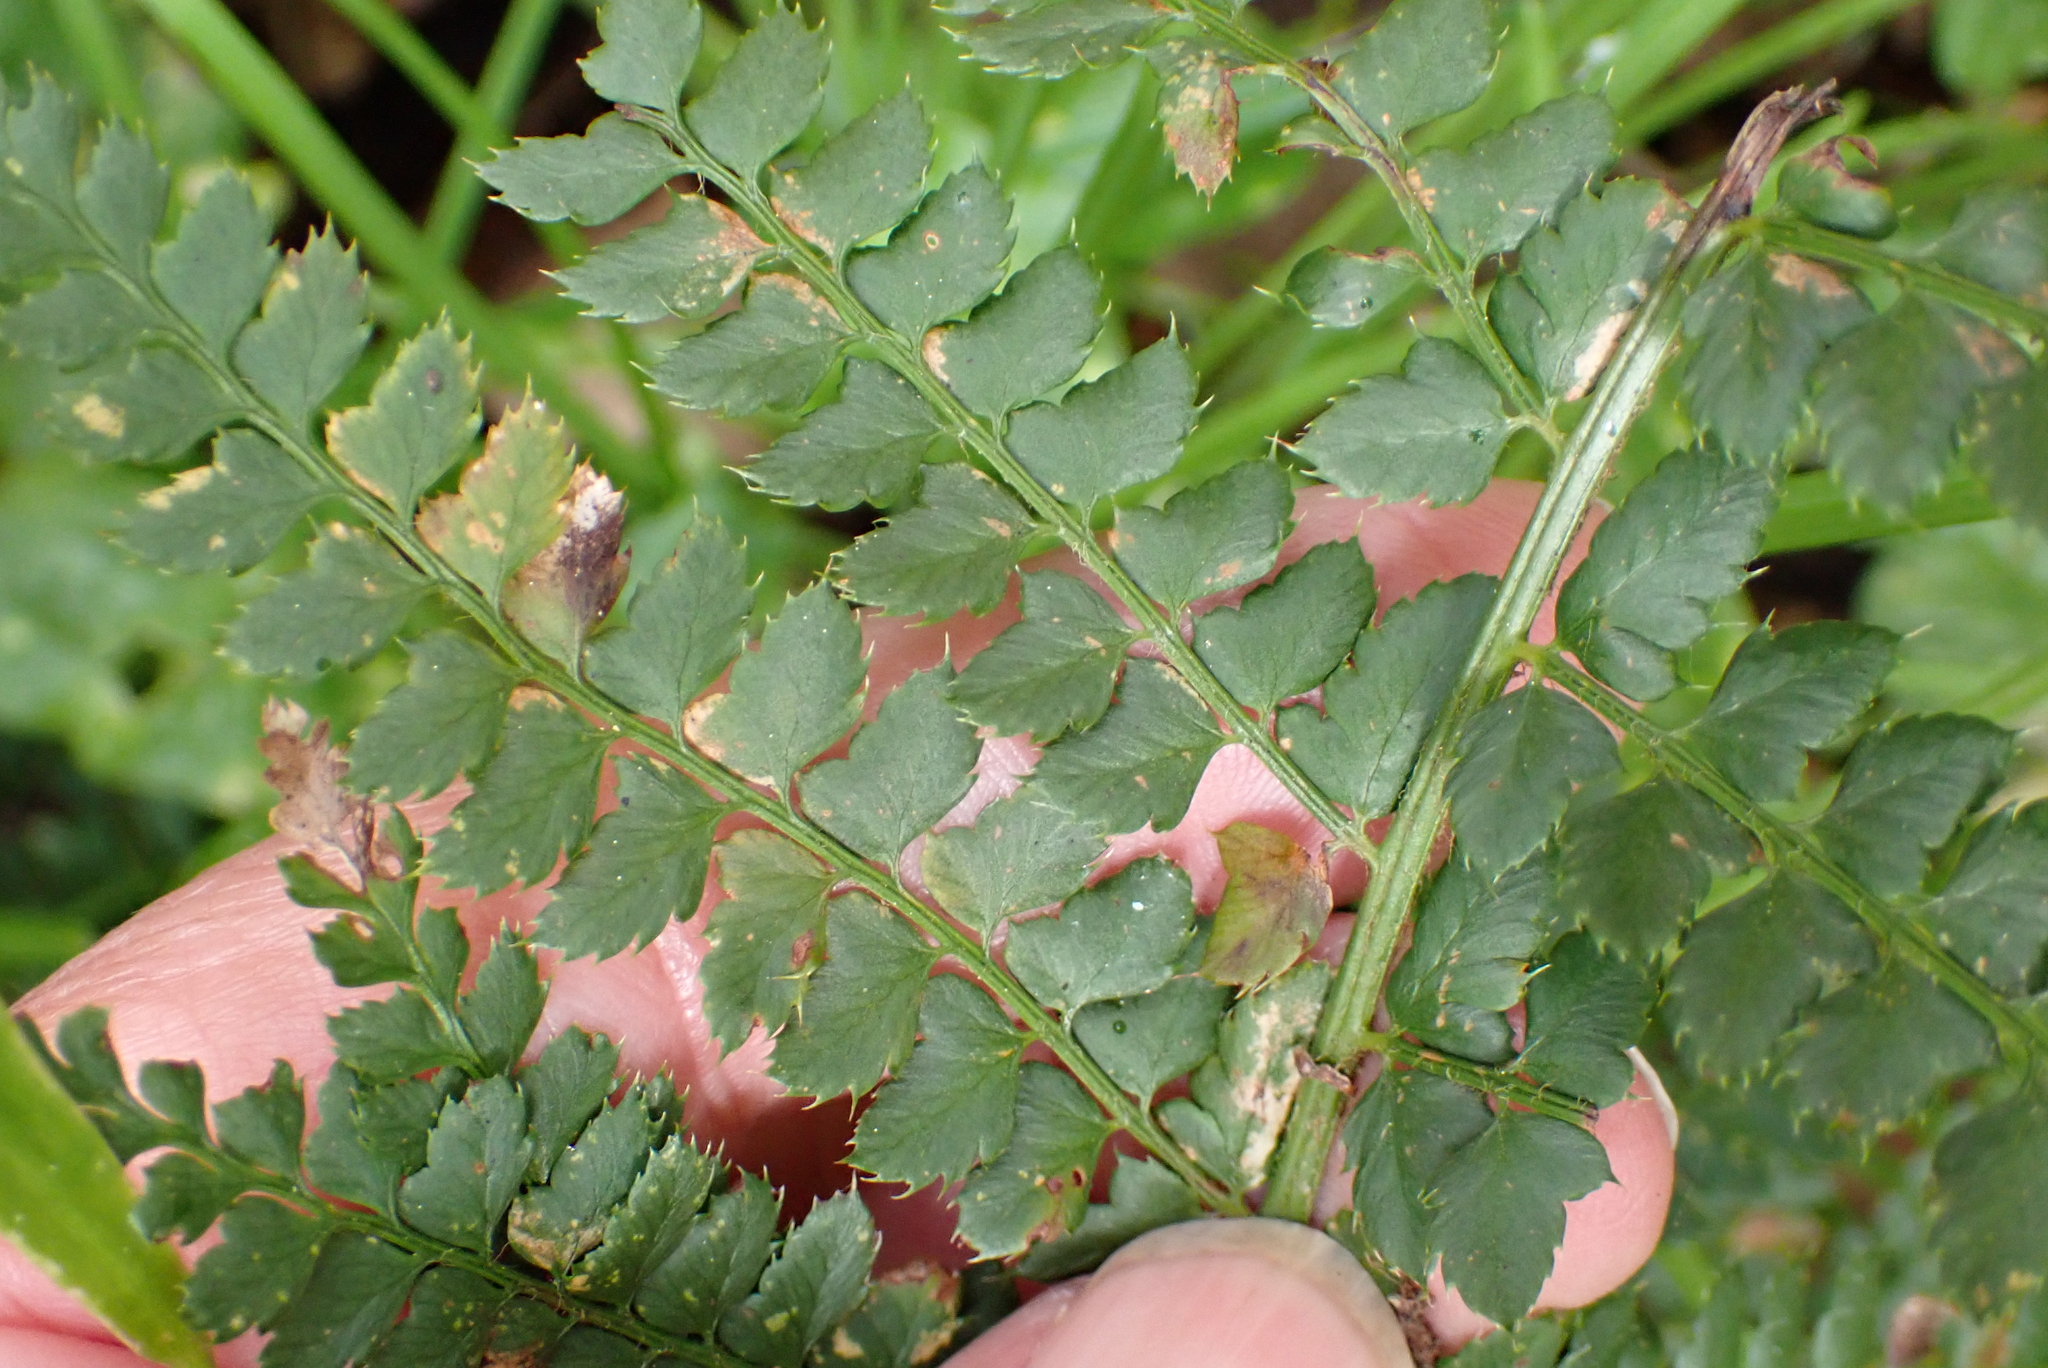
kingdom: Plantae
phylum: Tracheophyta
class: Polypodiopsida
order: Polypodiales
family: Dryopteridaceae
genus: Polystichum
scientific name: Polystichum setiferum
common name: Soft shield-fern
